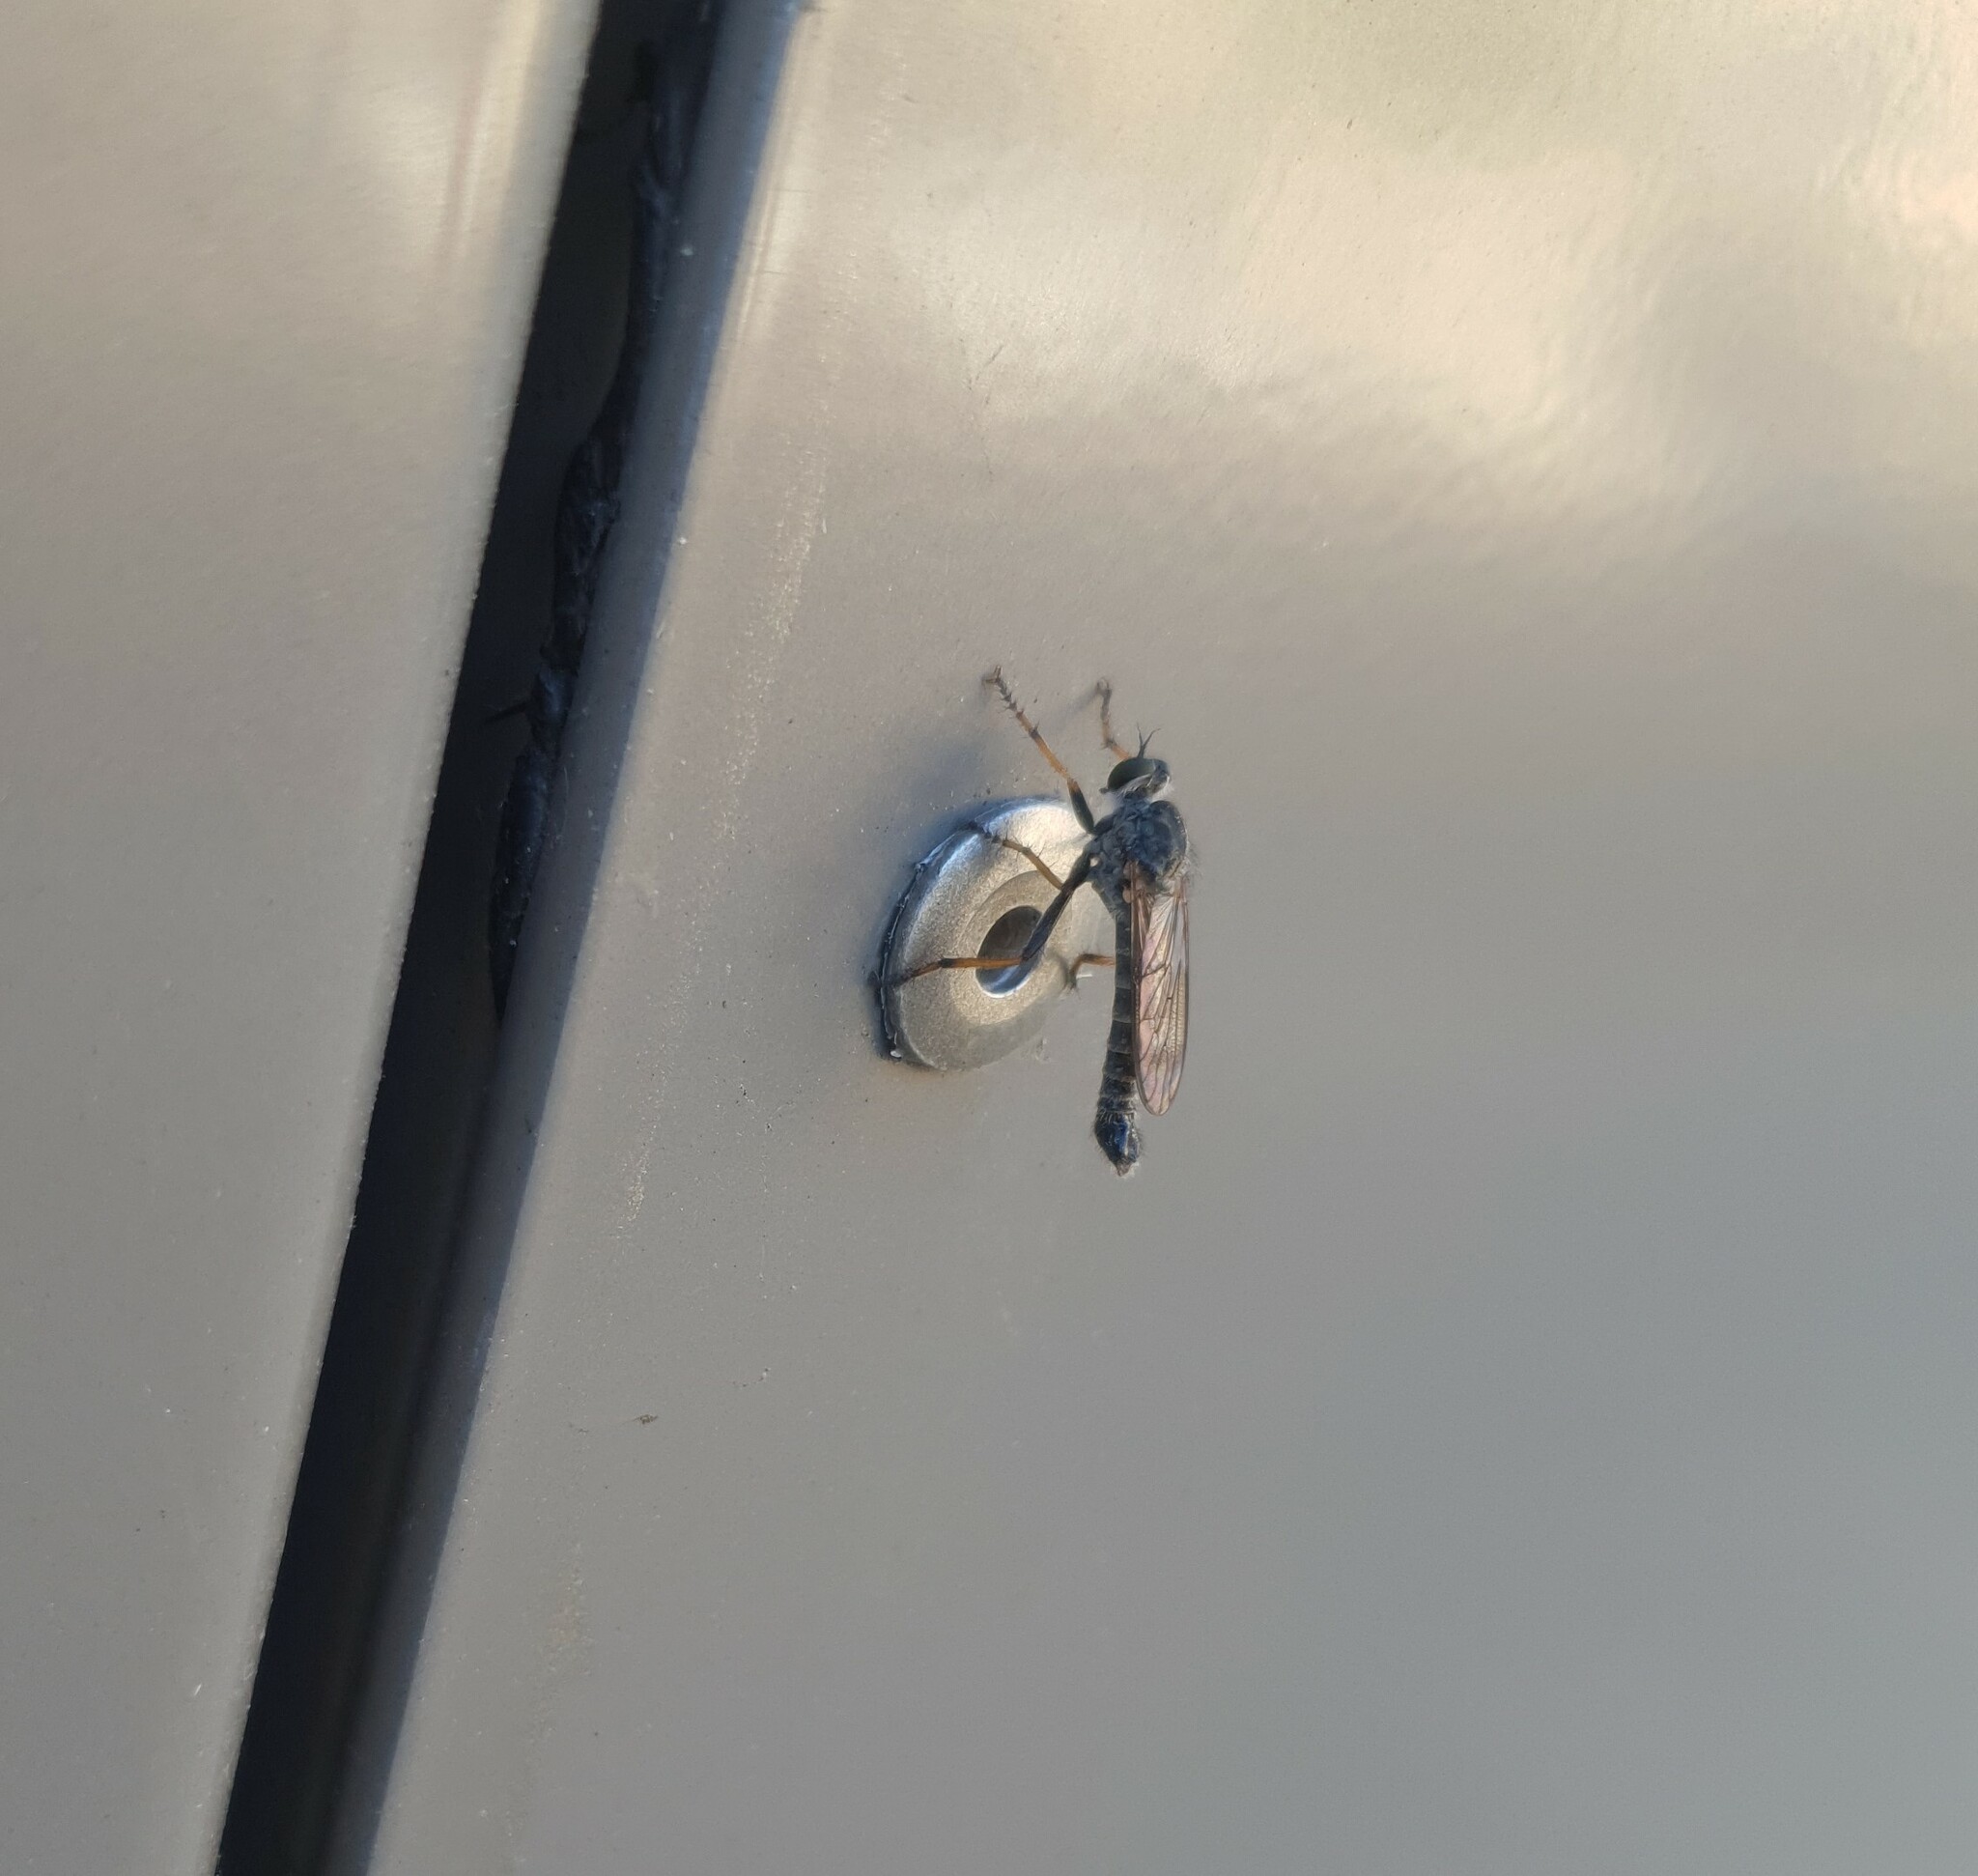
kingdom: Animalia
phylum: Arthropoda
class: Insecta
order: Diptera
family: Asilidae
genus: Paritamus
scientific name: Paritamus geniculatus
